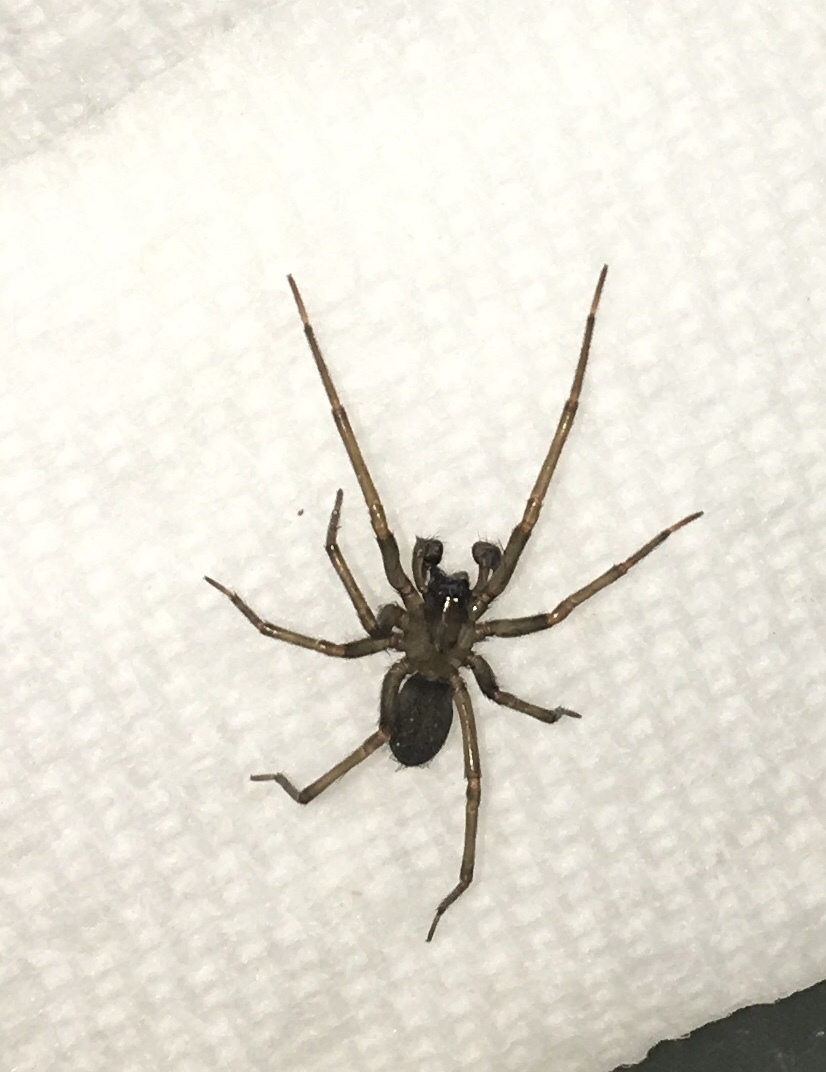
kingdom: Animalia
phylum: Arthropoda
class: Arachnida
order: Araneae
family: Desidae
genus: Metaltella
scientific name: Metaltella simoni
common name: Cribellate spider
